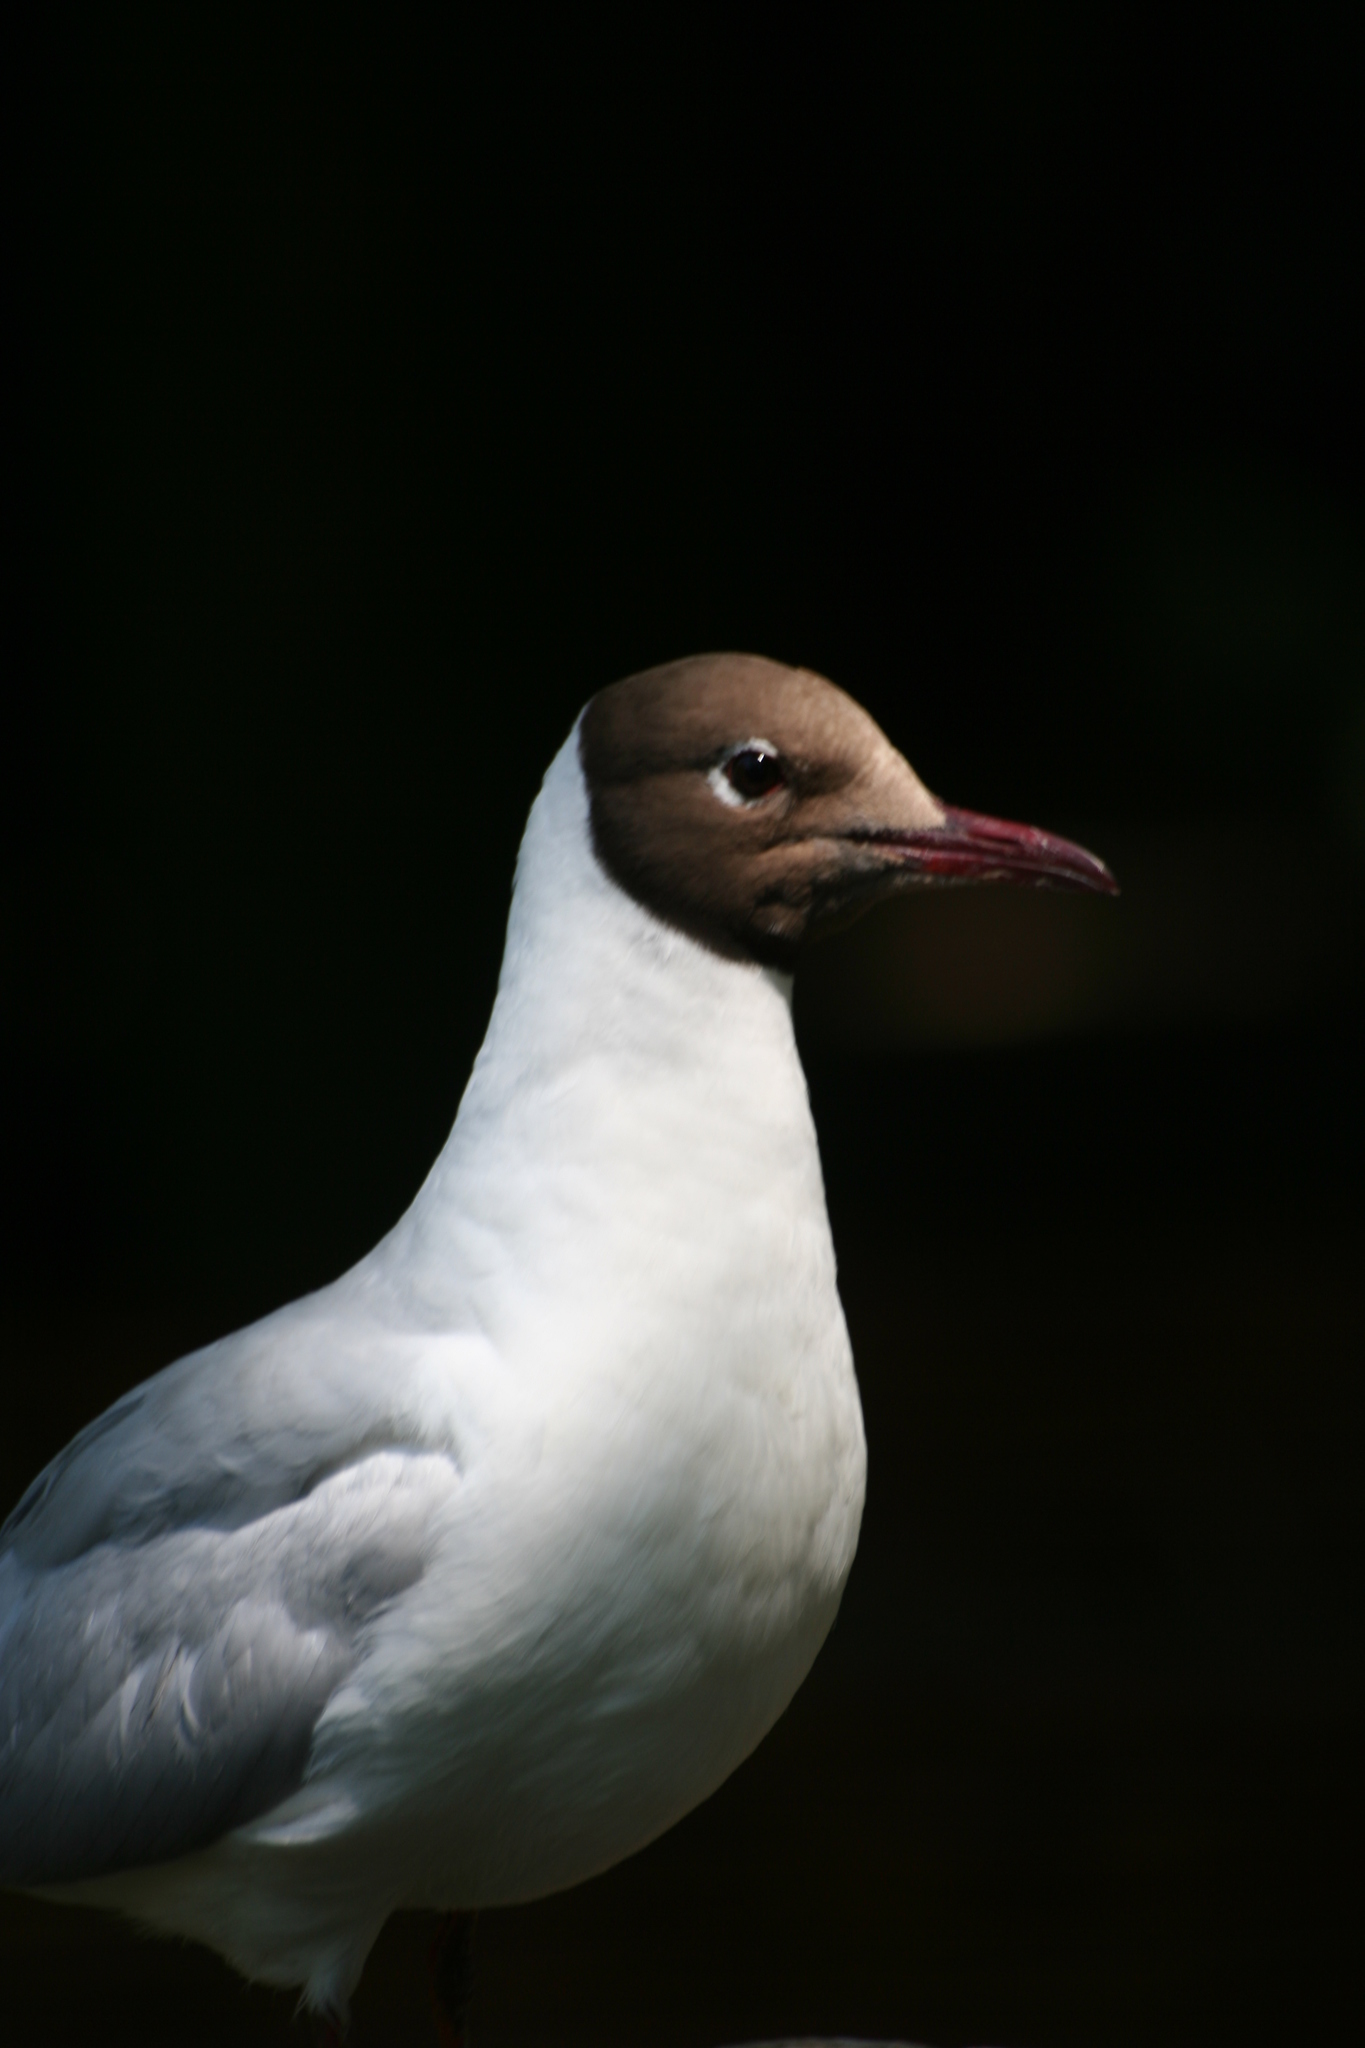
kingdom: Animalia
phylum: Chordata
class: Aves
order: Charadriiformes
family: Laridae
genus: Chroicocephalus
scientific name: Chroicocephalus ridibundus
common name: Black-headed gull
